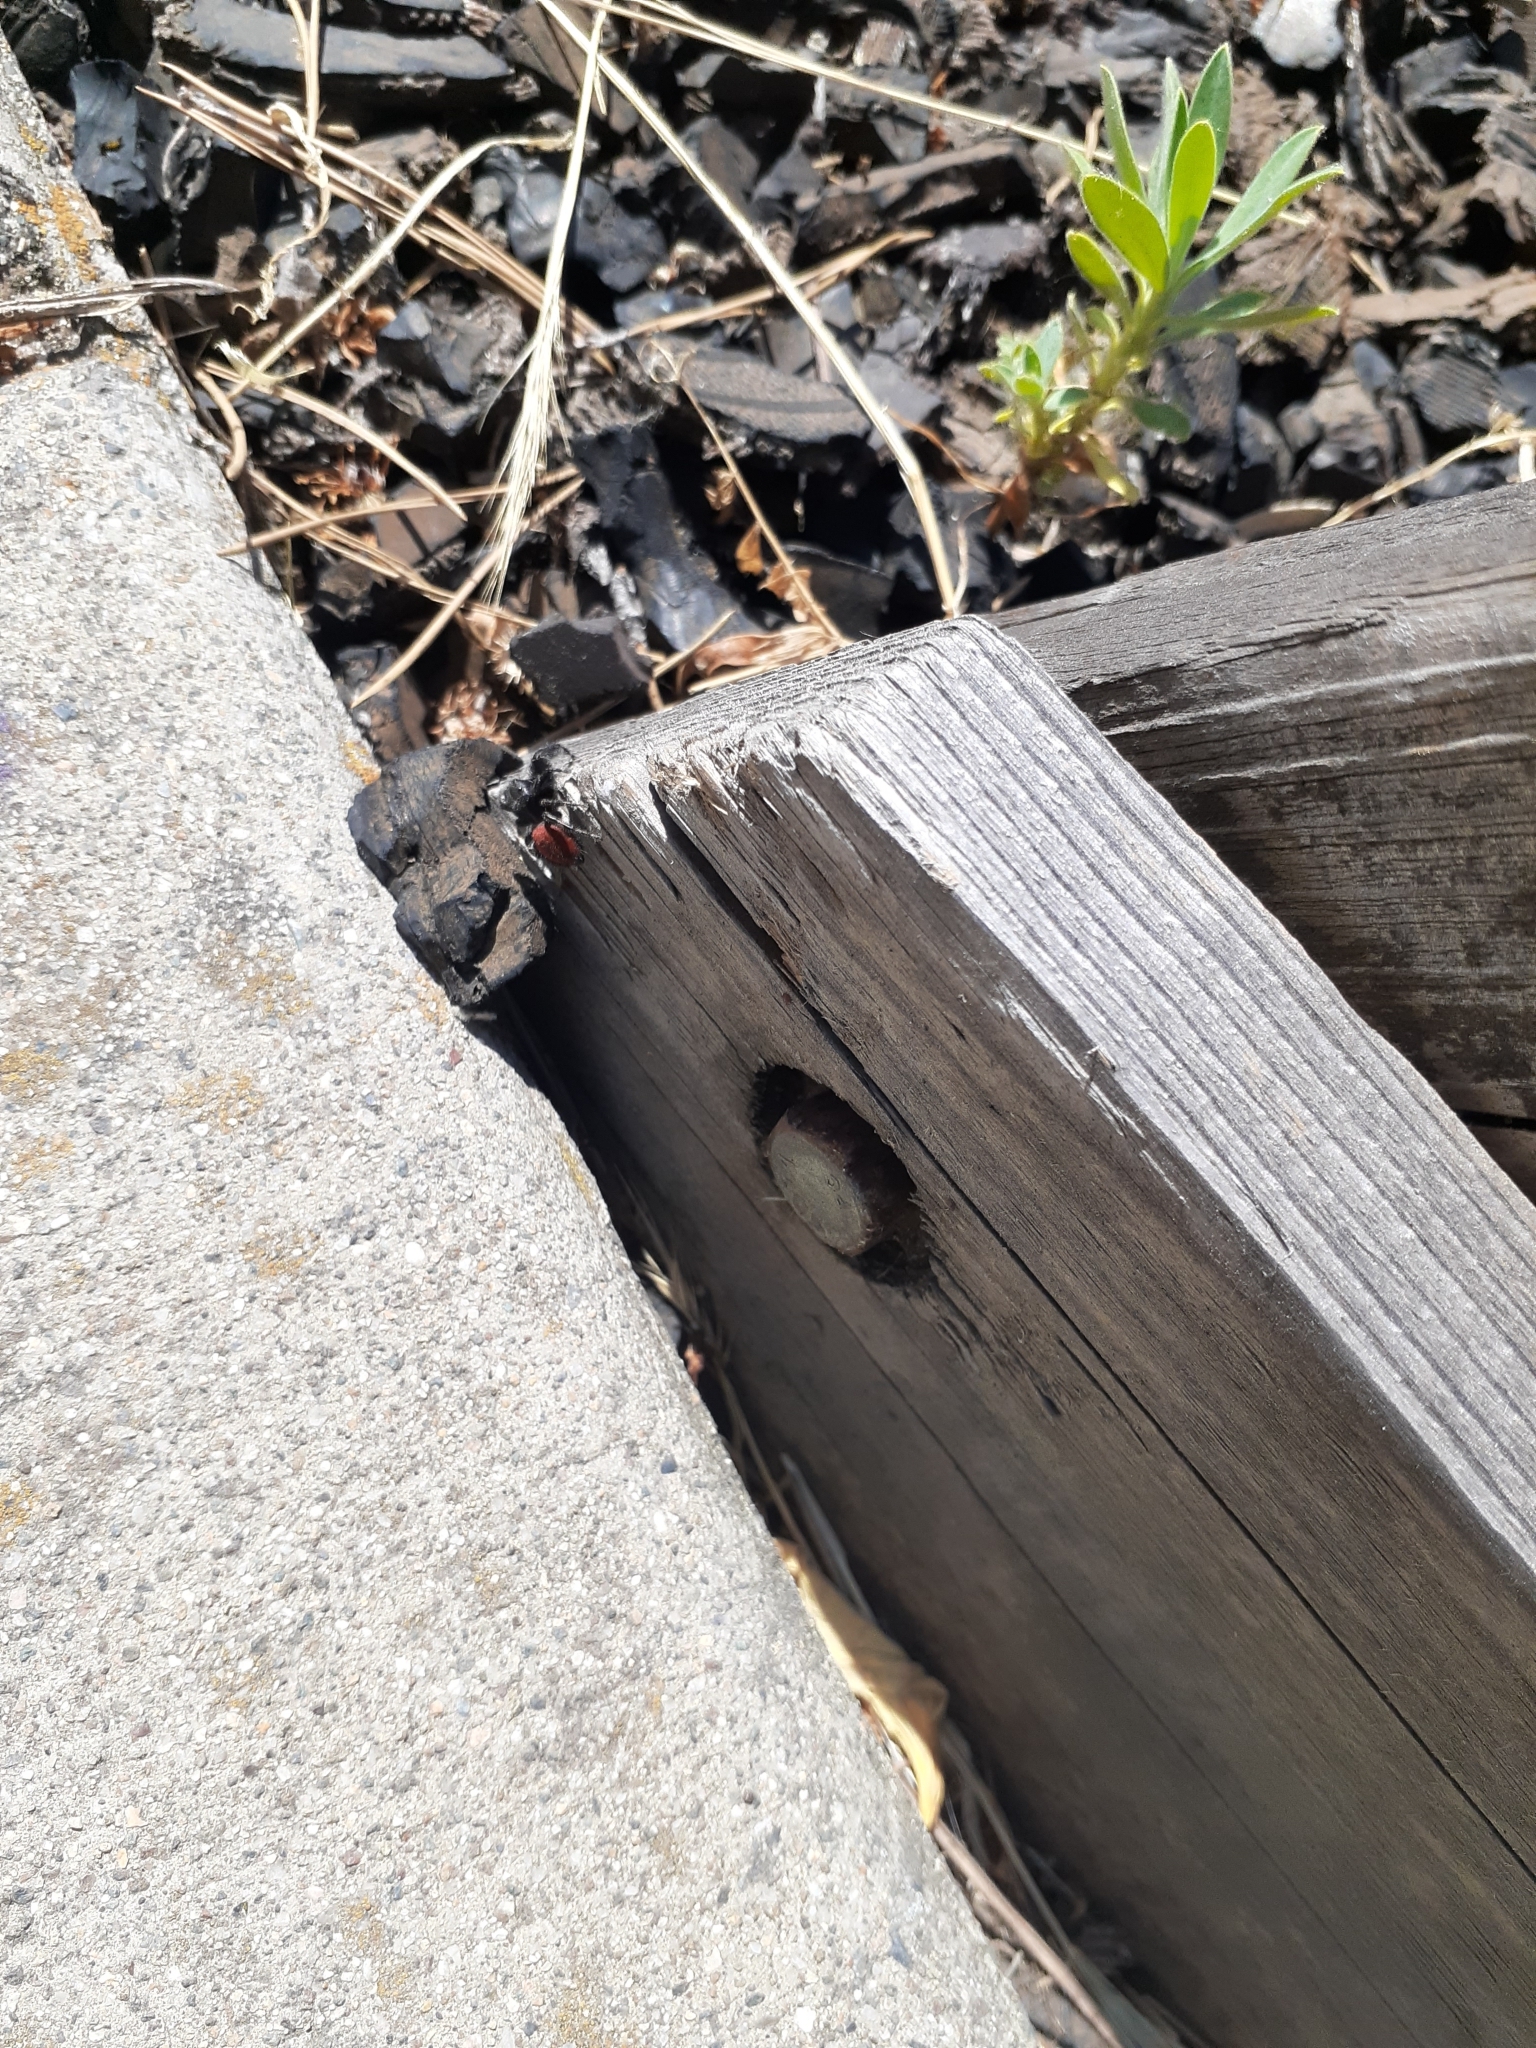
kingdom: Animalia
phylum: Arthropoda
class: Arachnida
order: Araneae
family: Salticidae
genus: Phidippus
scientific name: Phidippus johnsoni
